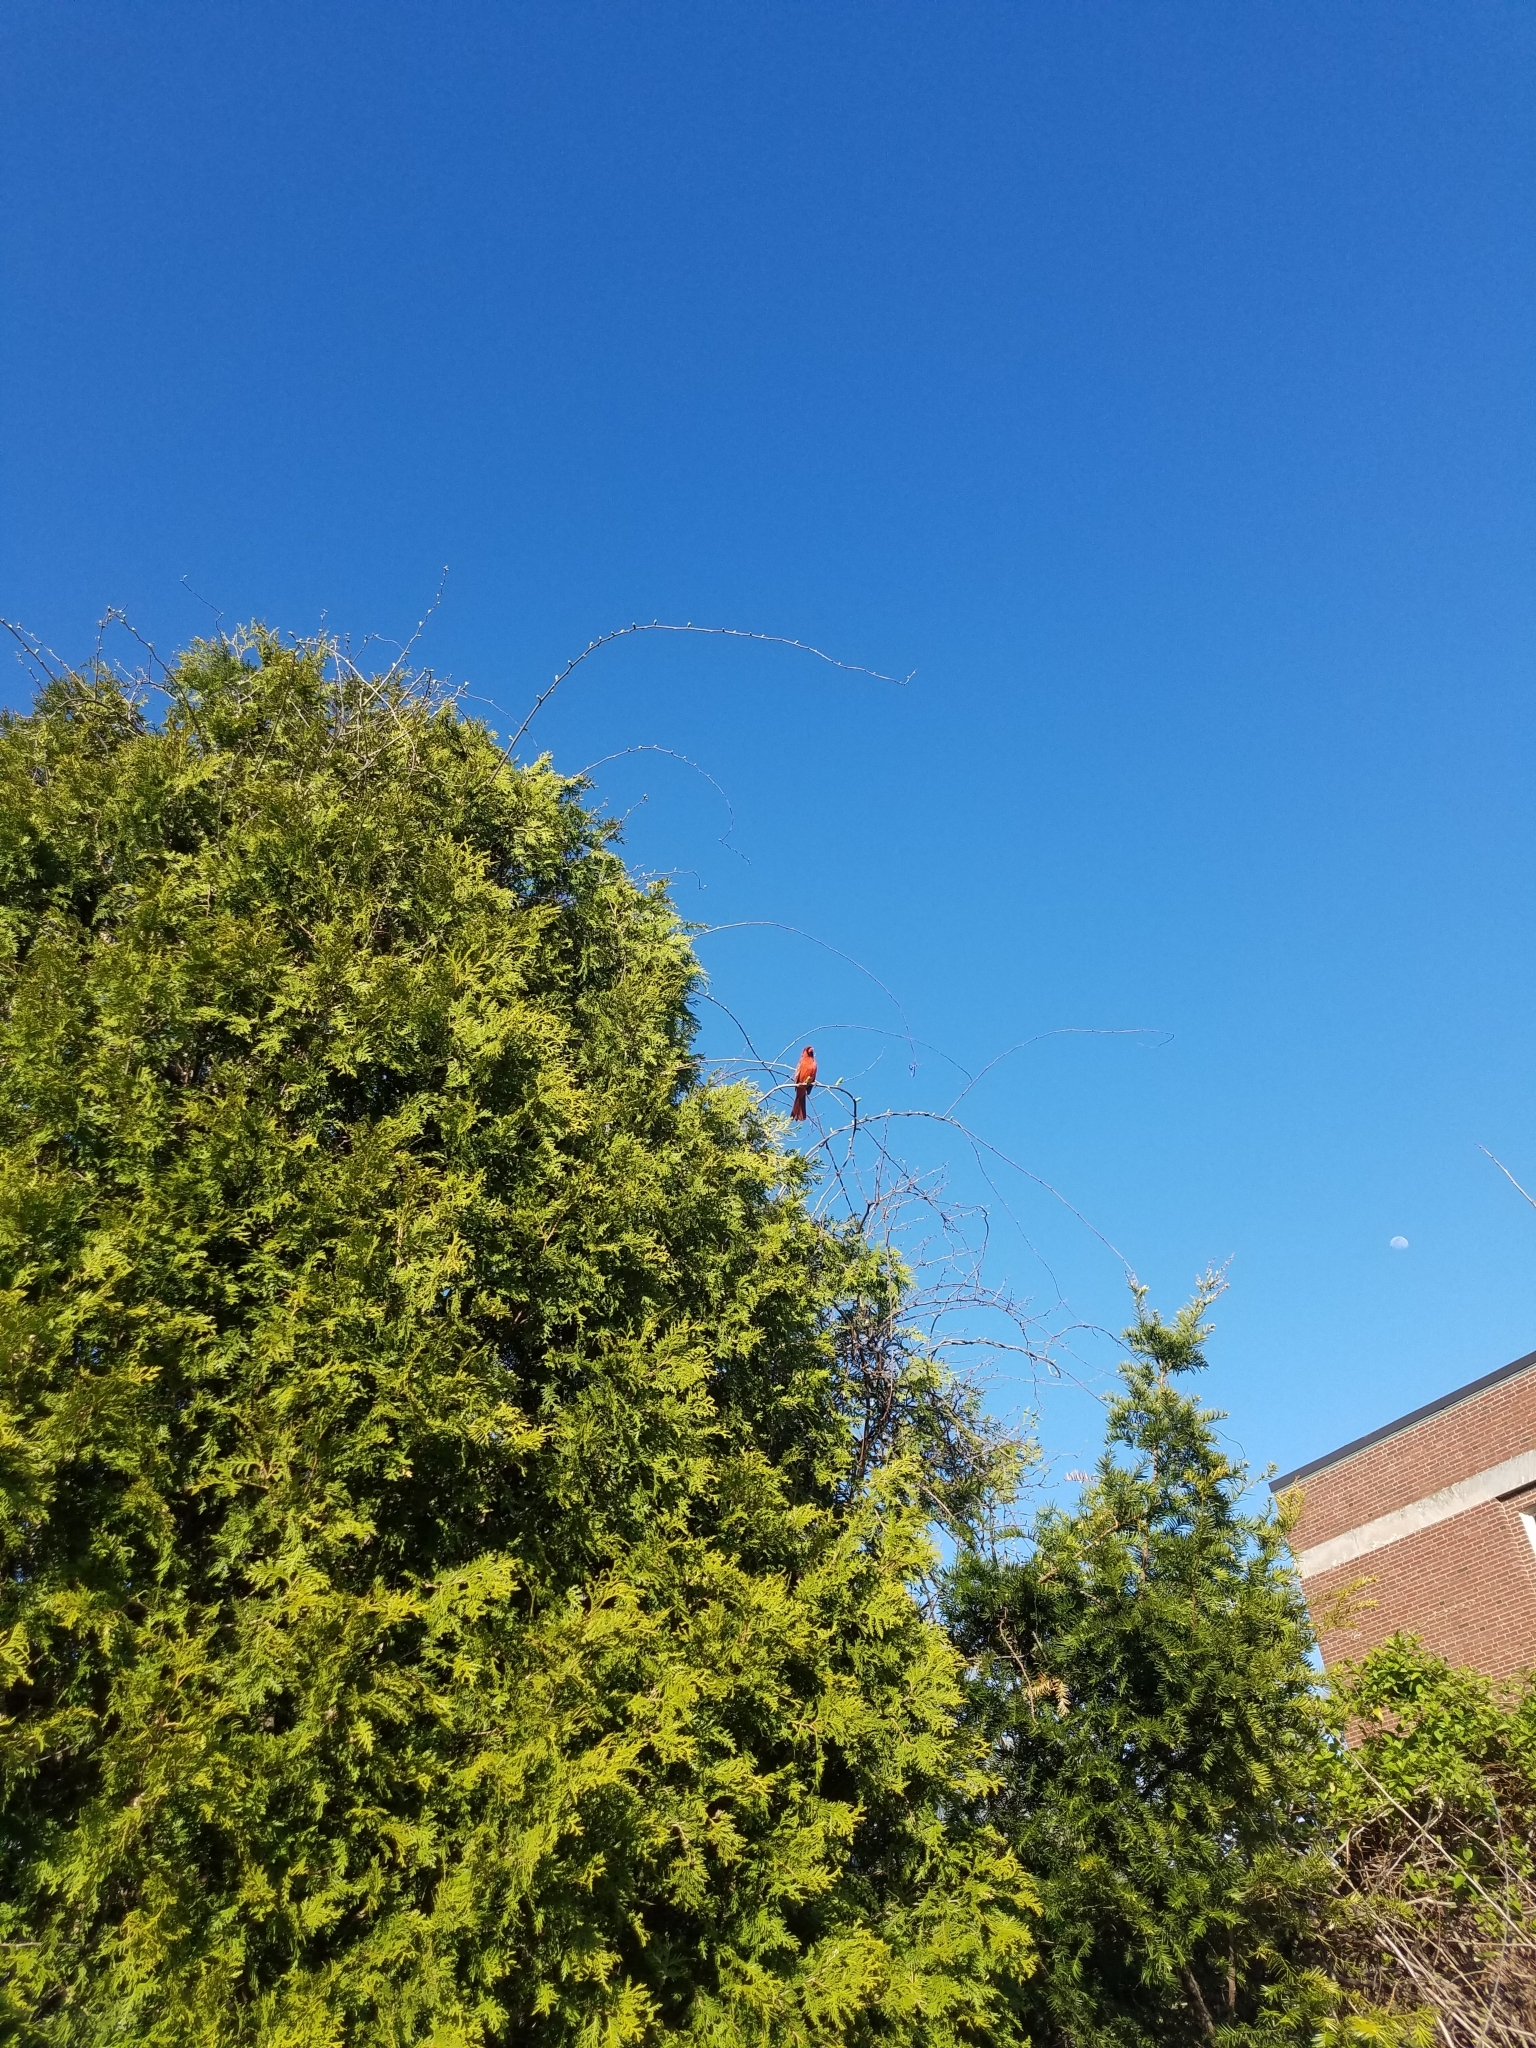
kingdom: Animalia
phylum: Chordata
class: Aves
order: Passeriformes
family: Cardinalidae
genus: Cardinalis
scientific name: Cardinalis cardinalis
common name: Northern cardinal
